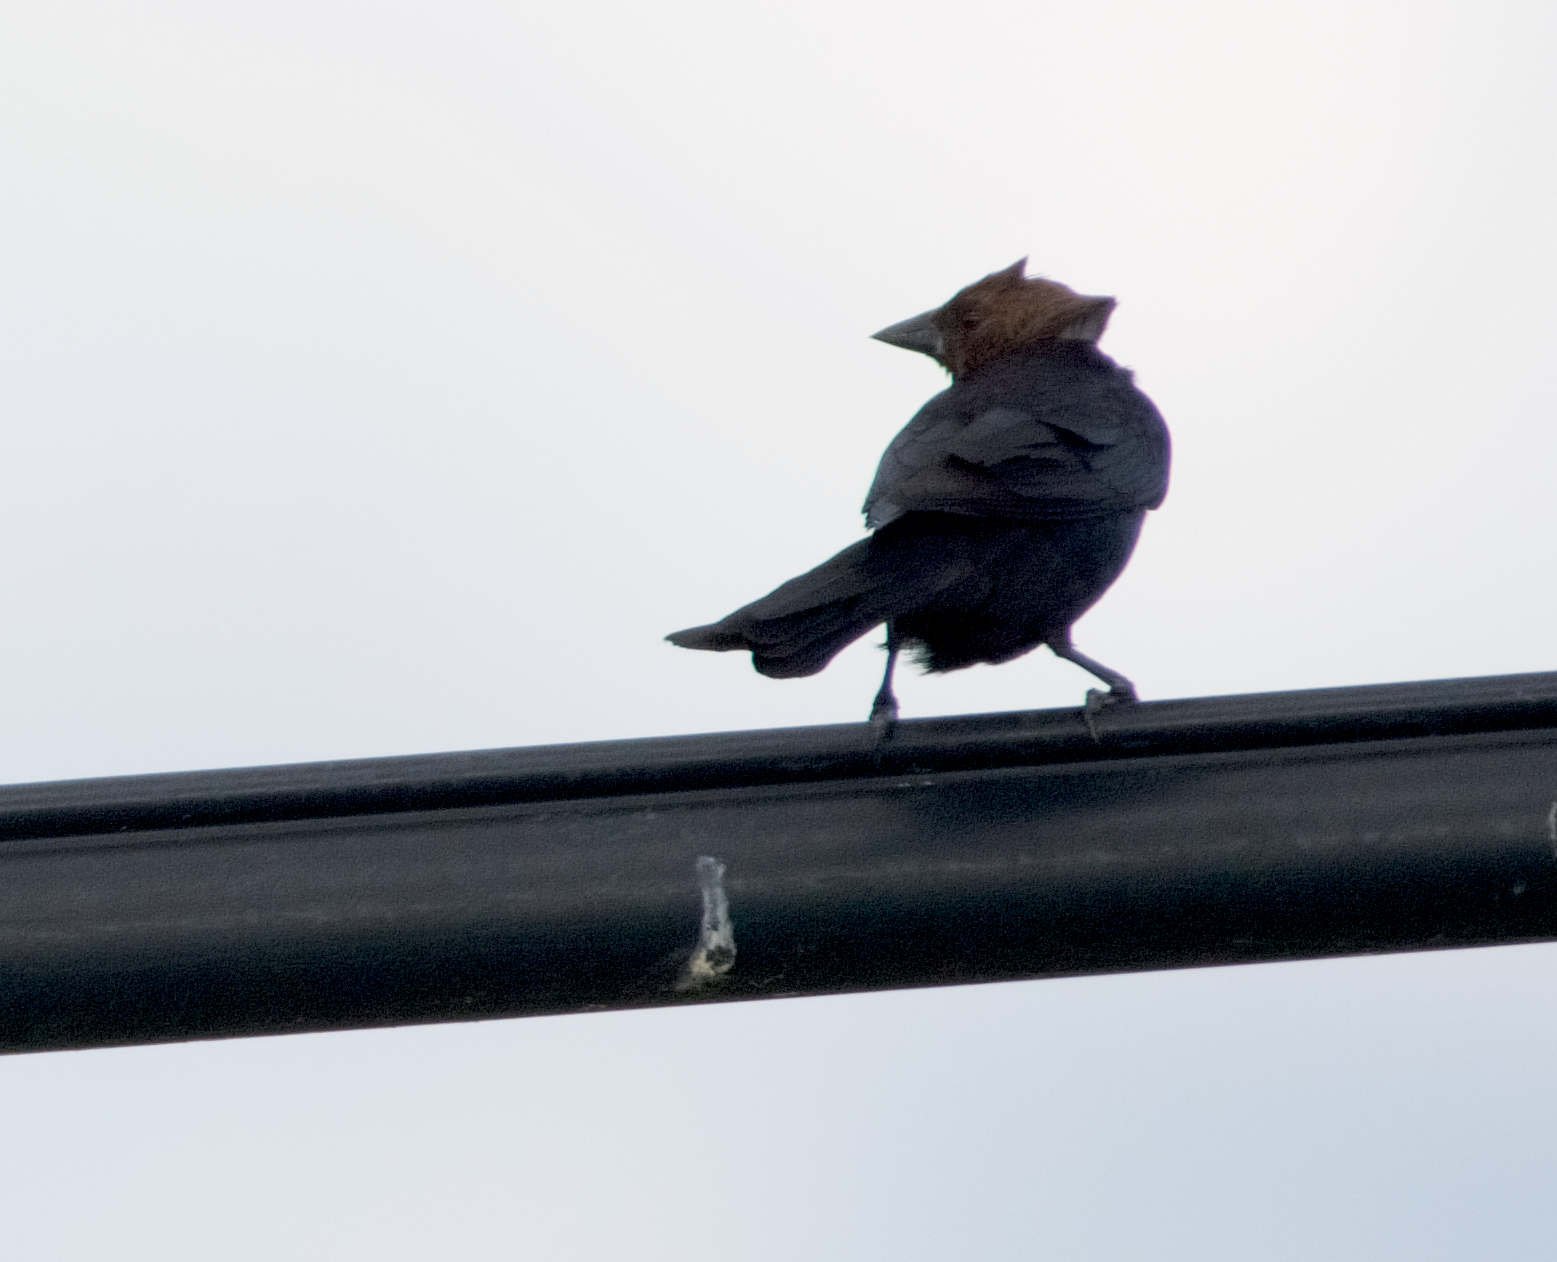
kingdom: Animalia
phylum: Chordata
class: Aves
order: Passeriformes
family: Icteridae
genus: Molothrus
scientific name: Molothrus ater
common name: Brown-headed cowbird
